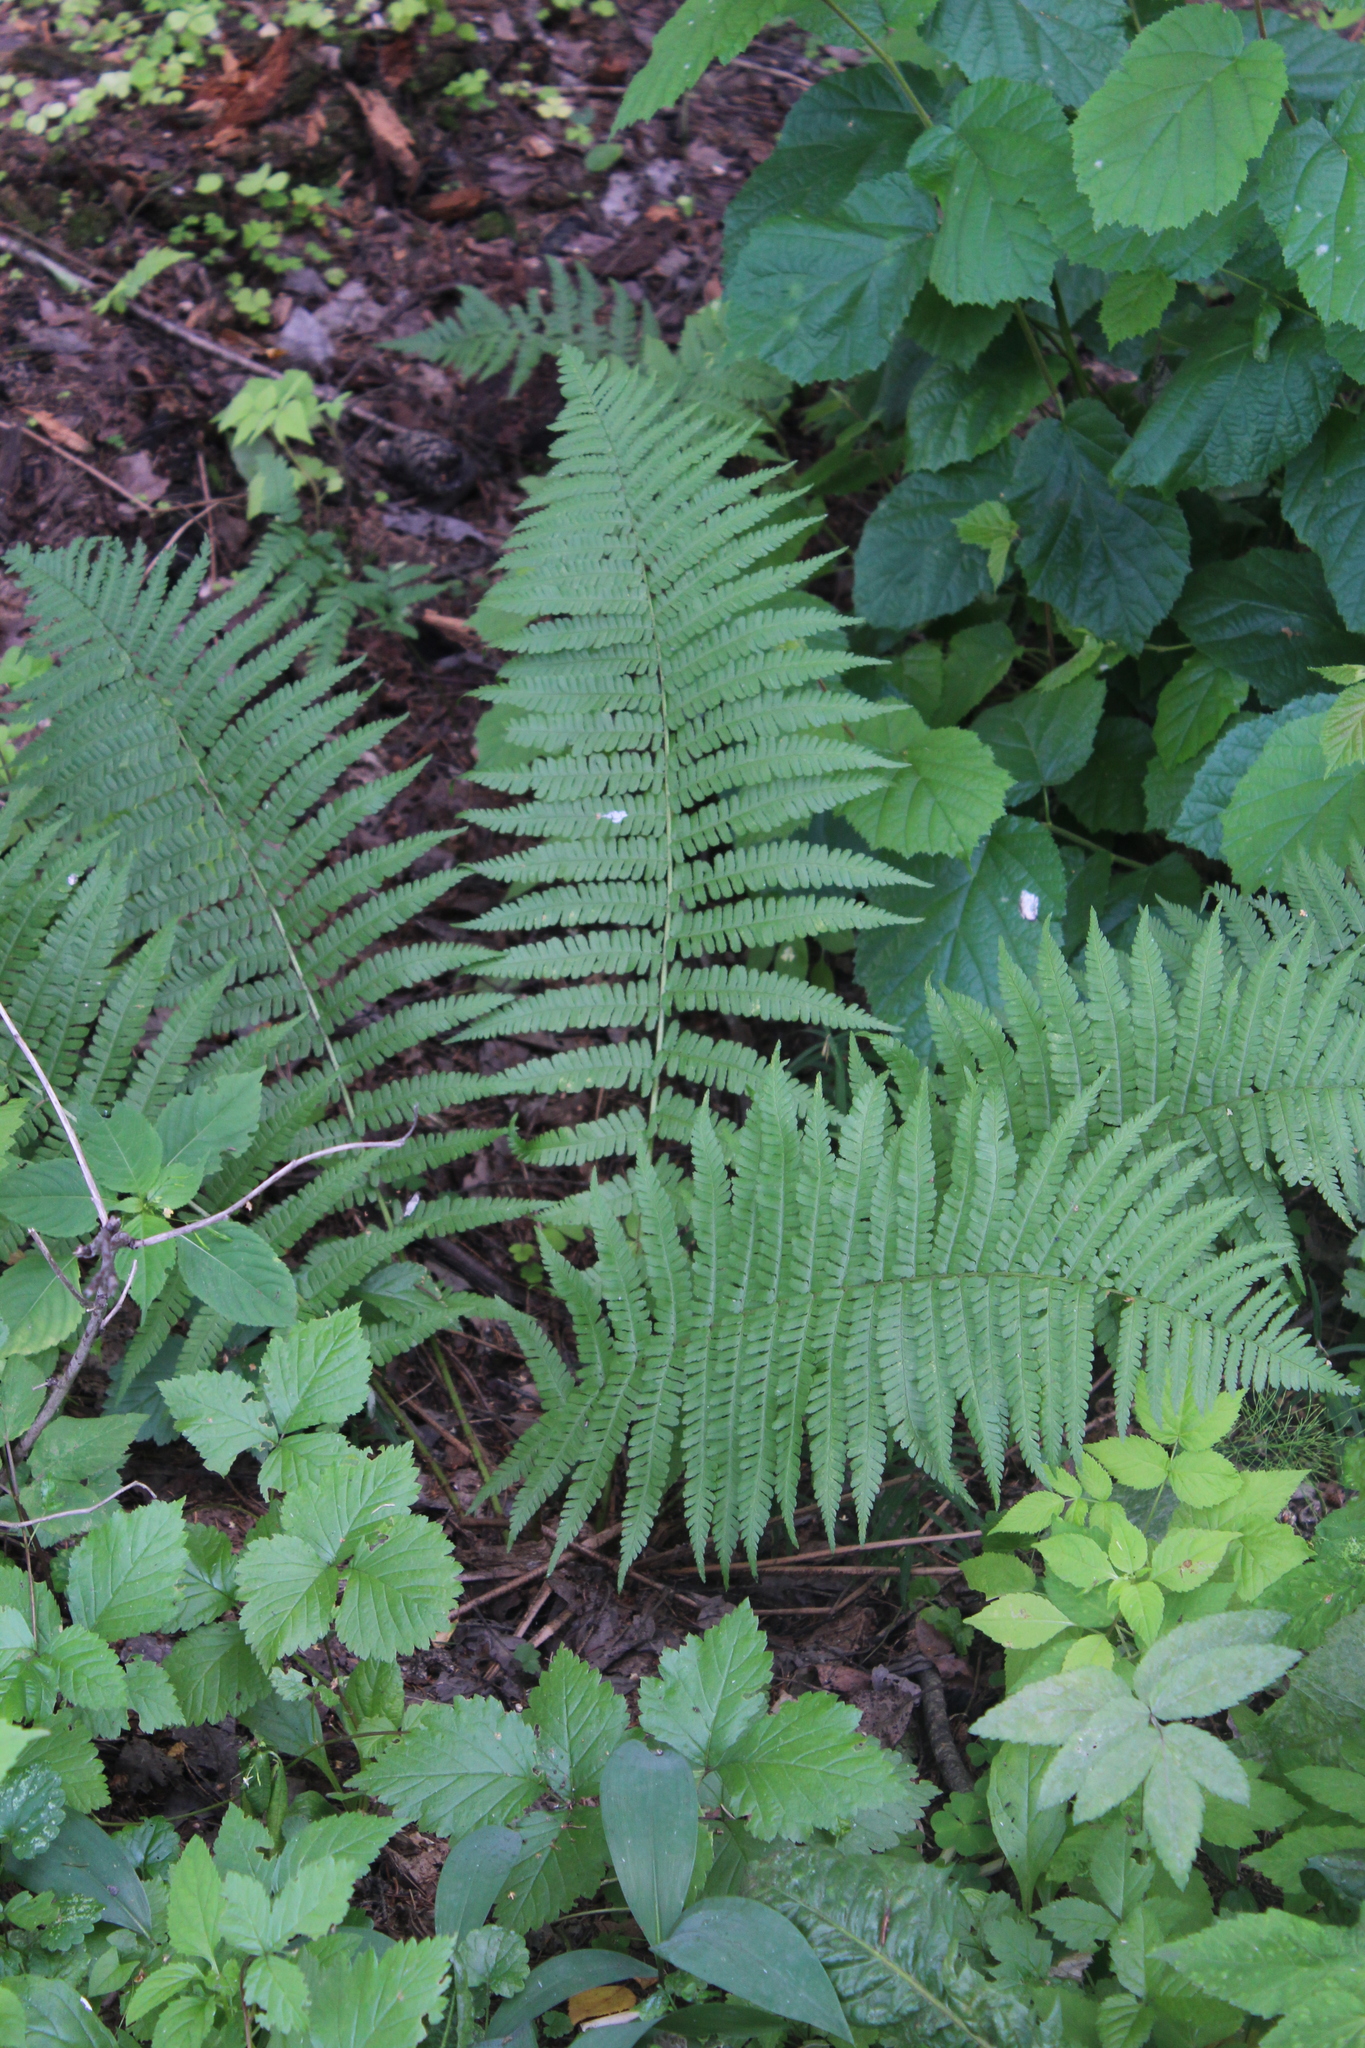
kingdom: Plantae
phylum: Tracheophyta
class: Polypodiopsida
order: Polypodiales
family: Dryopteridaceae
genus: Dryopteris
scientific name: Dryopteris filix-mas
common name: Male fern
